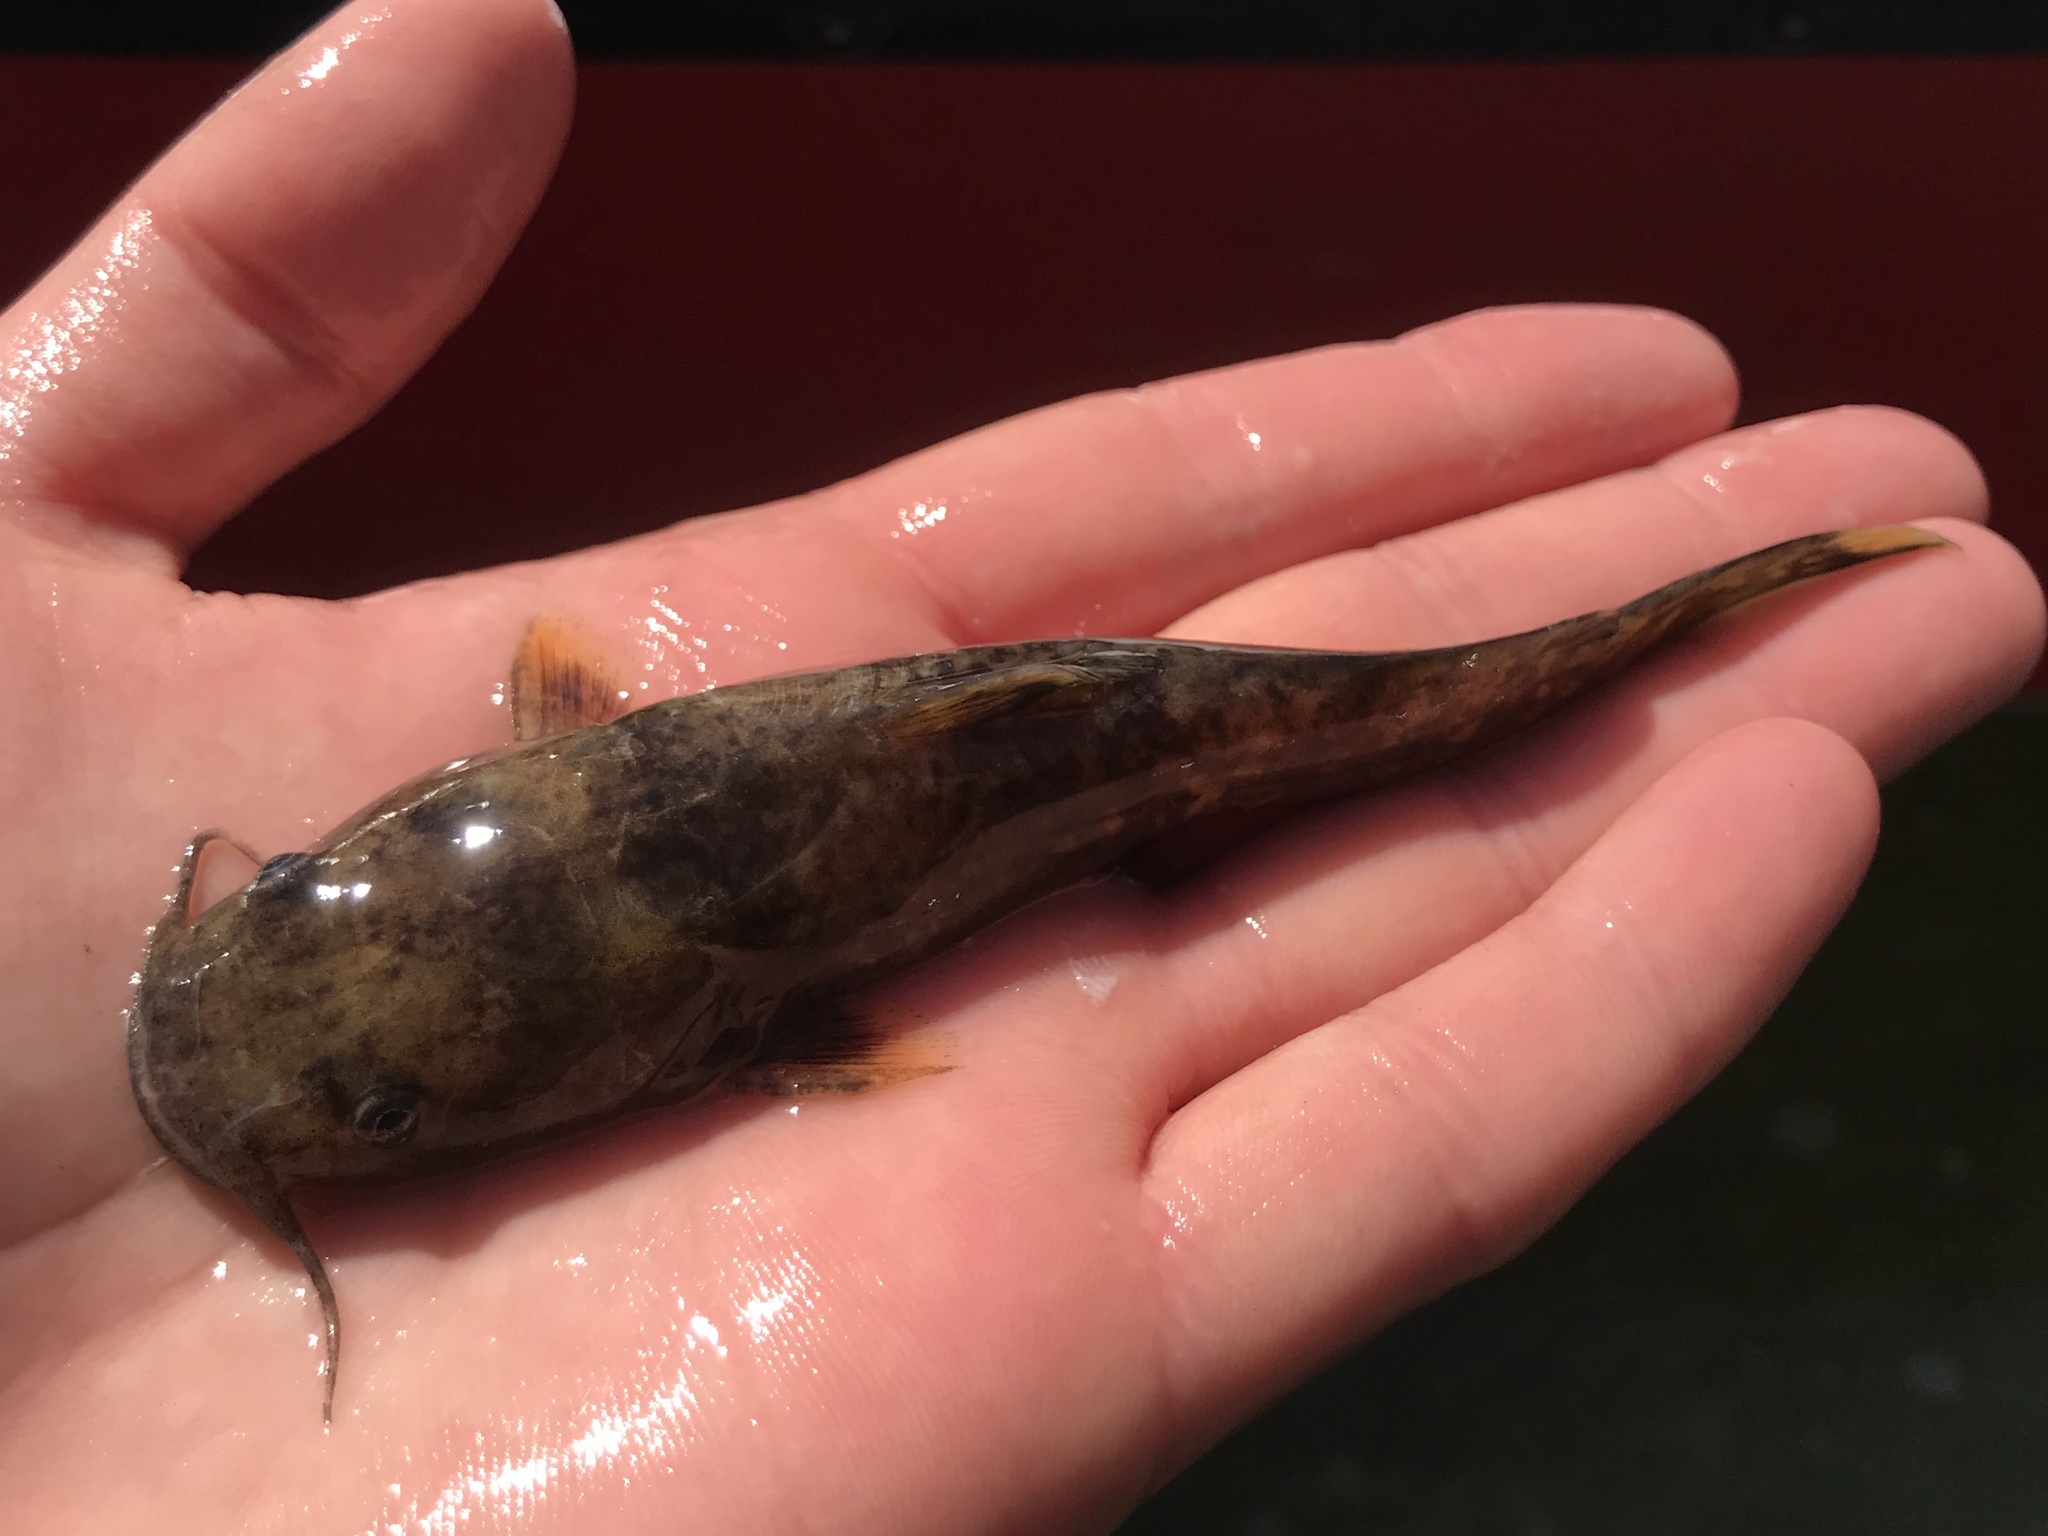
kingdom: Animalia
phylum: Chordata
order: Siluriformes
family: Ictaluridae
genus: Pylodictis
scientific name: Pylodictis olivaris
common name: Flathead catfish
